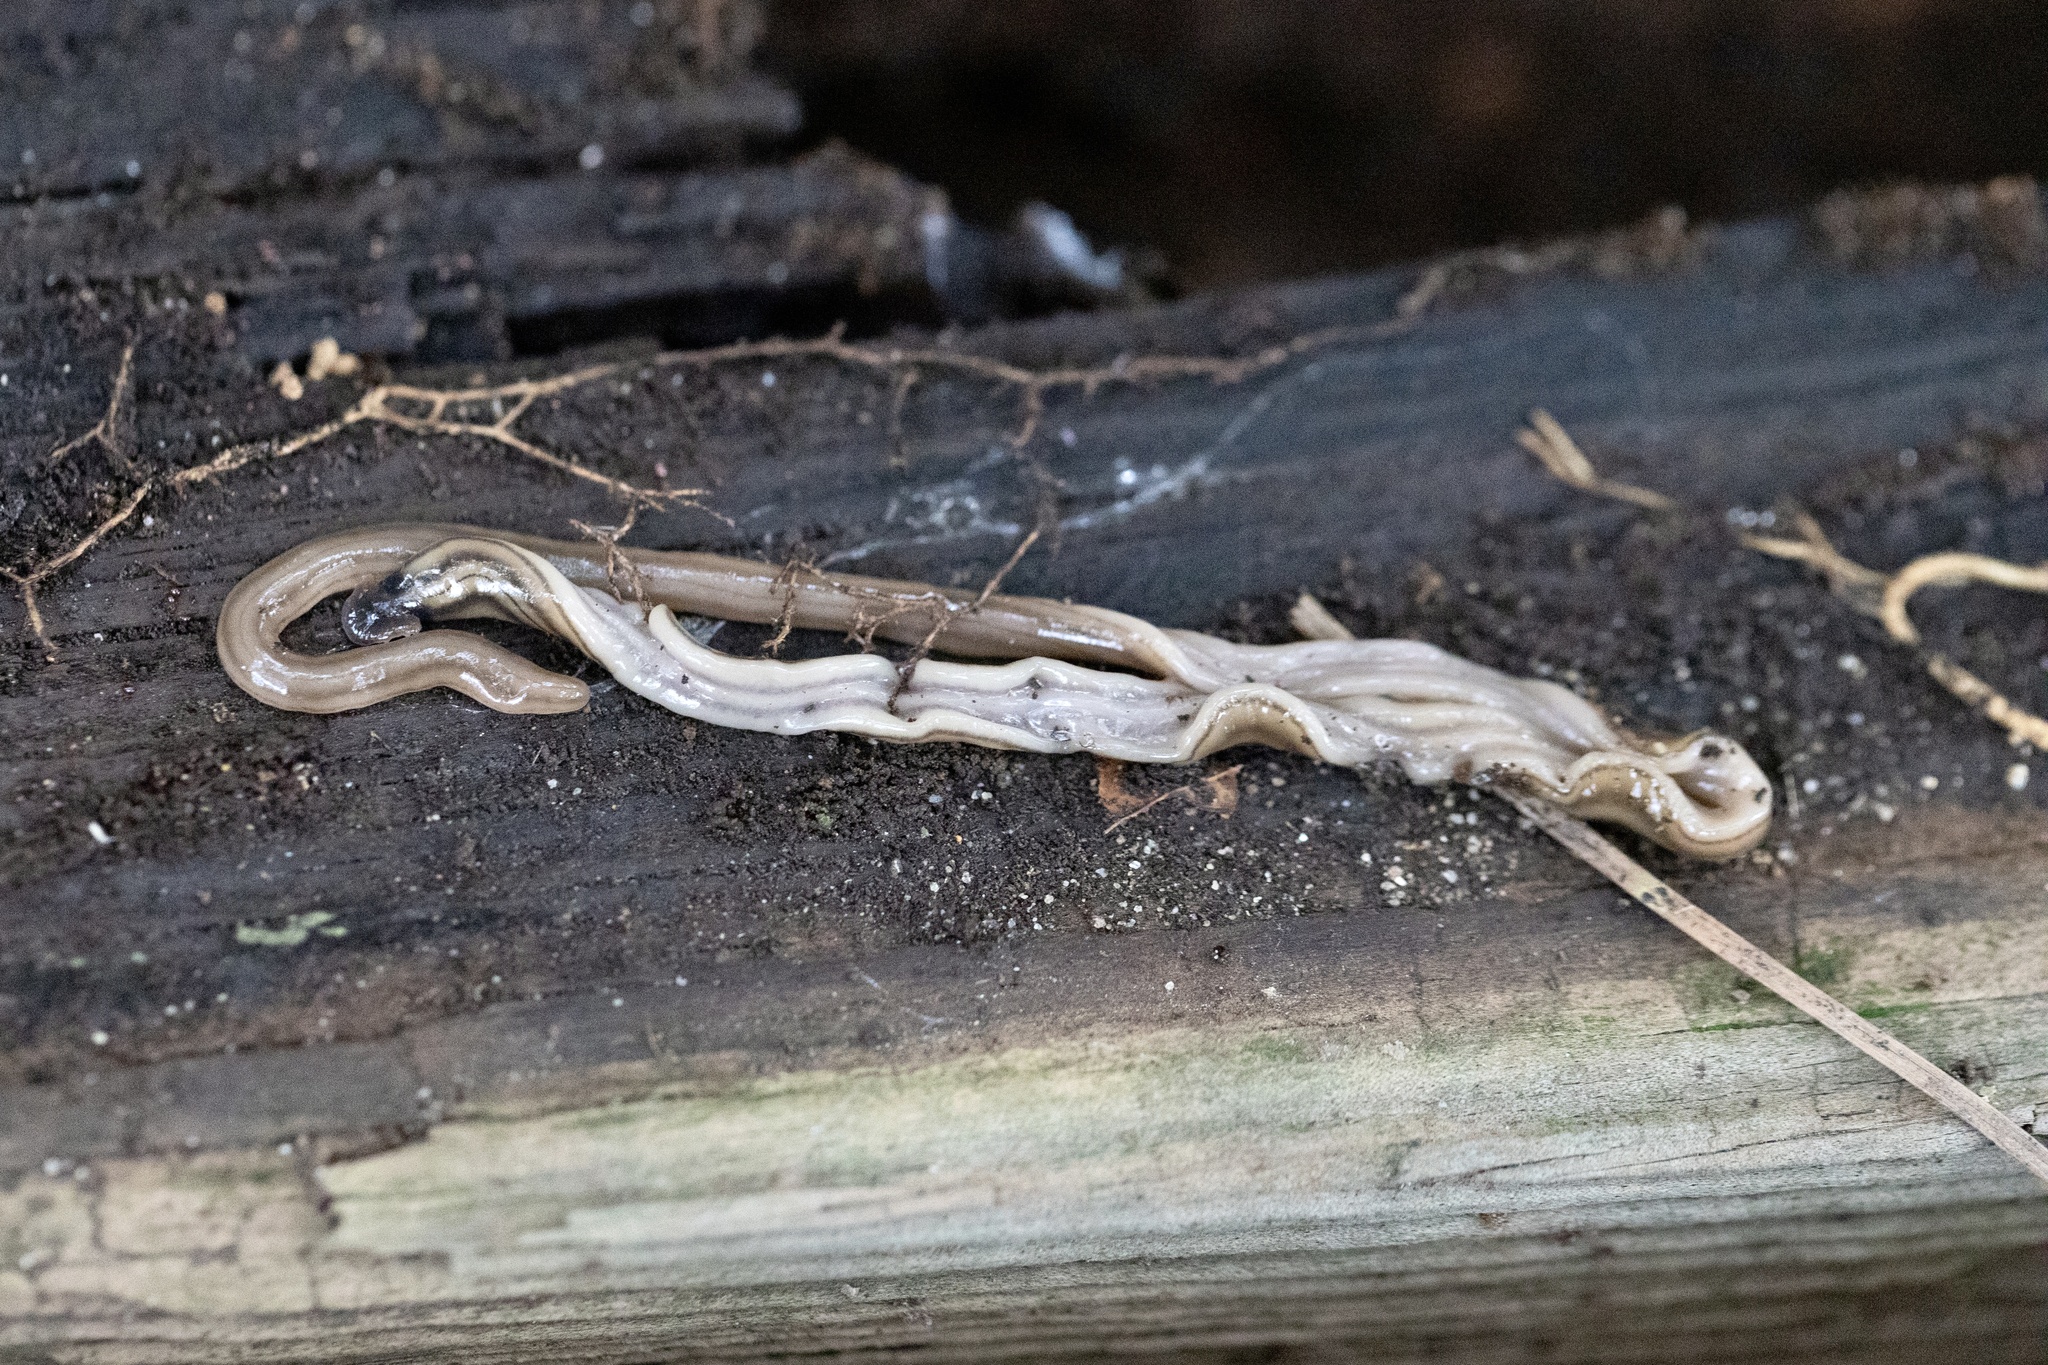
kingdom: Animalia
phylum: Platyhelminthes
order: Tricladida
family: Geoplanidae
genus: Bipalium
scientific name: Bipalium kewense
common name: Hammerhead flatworm
